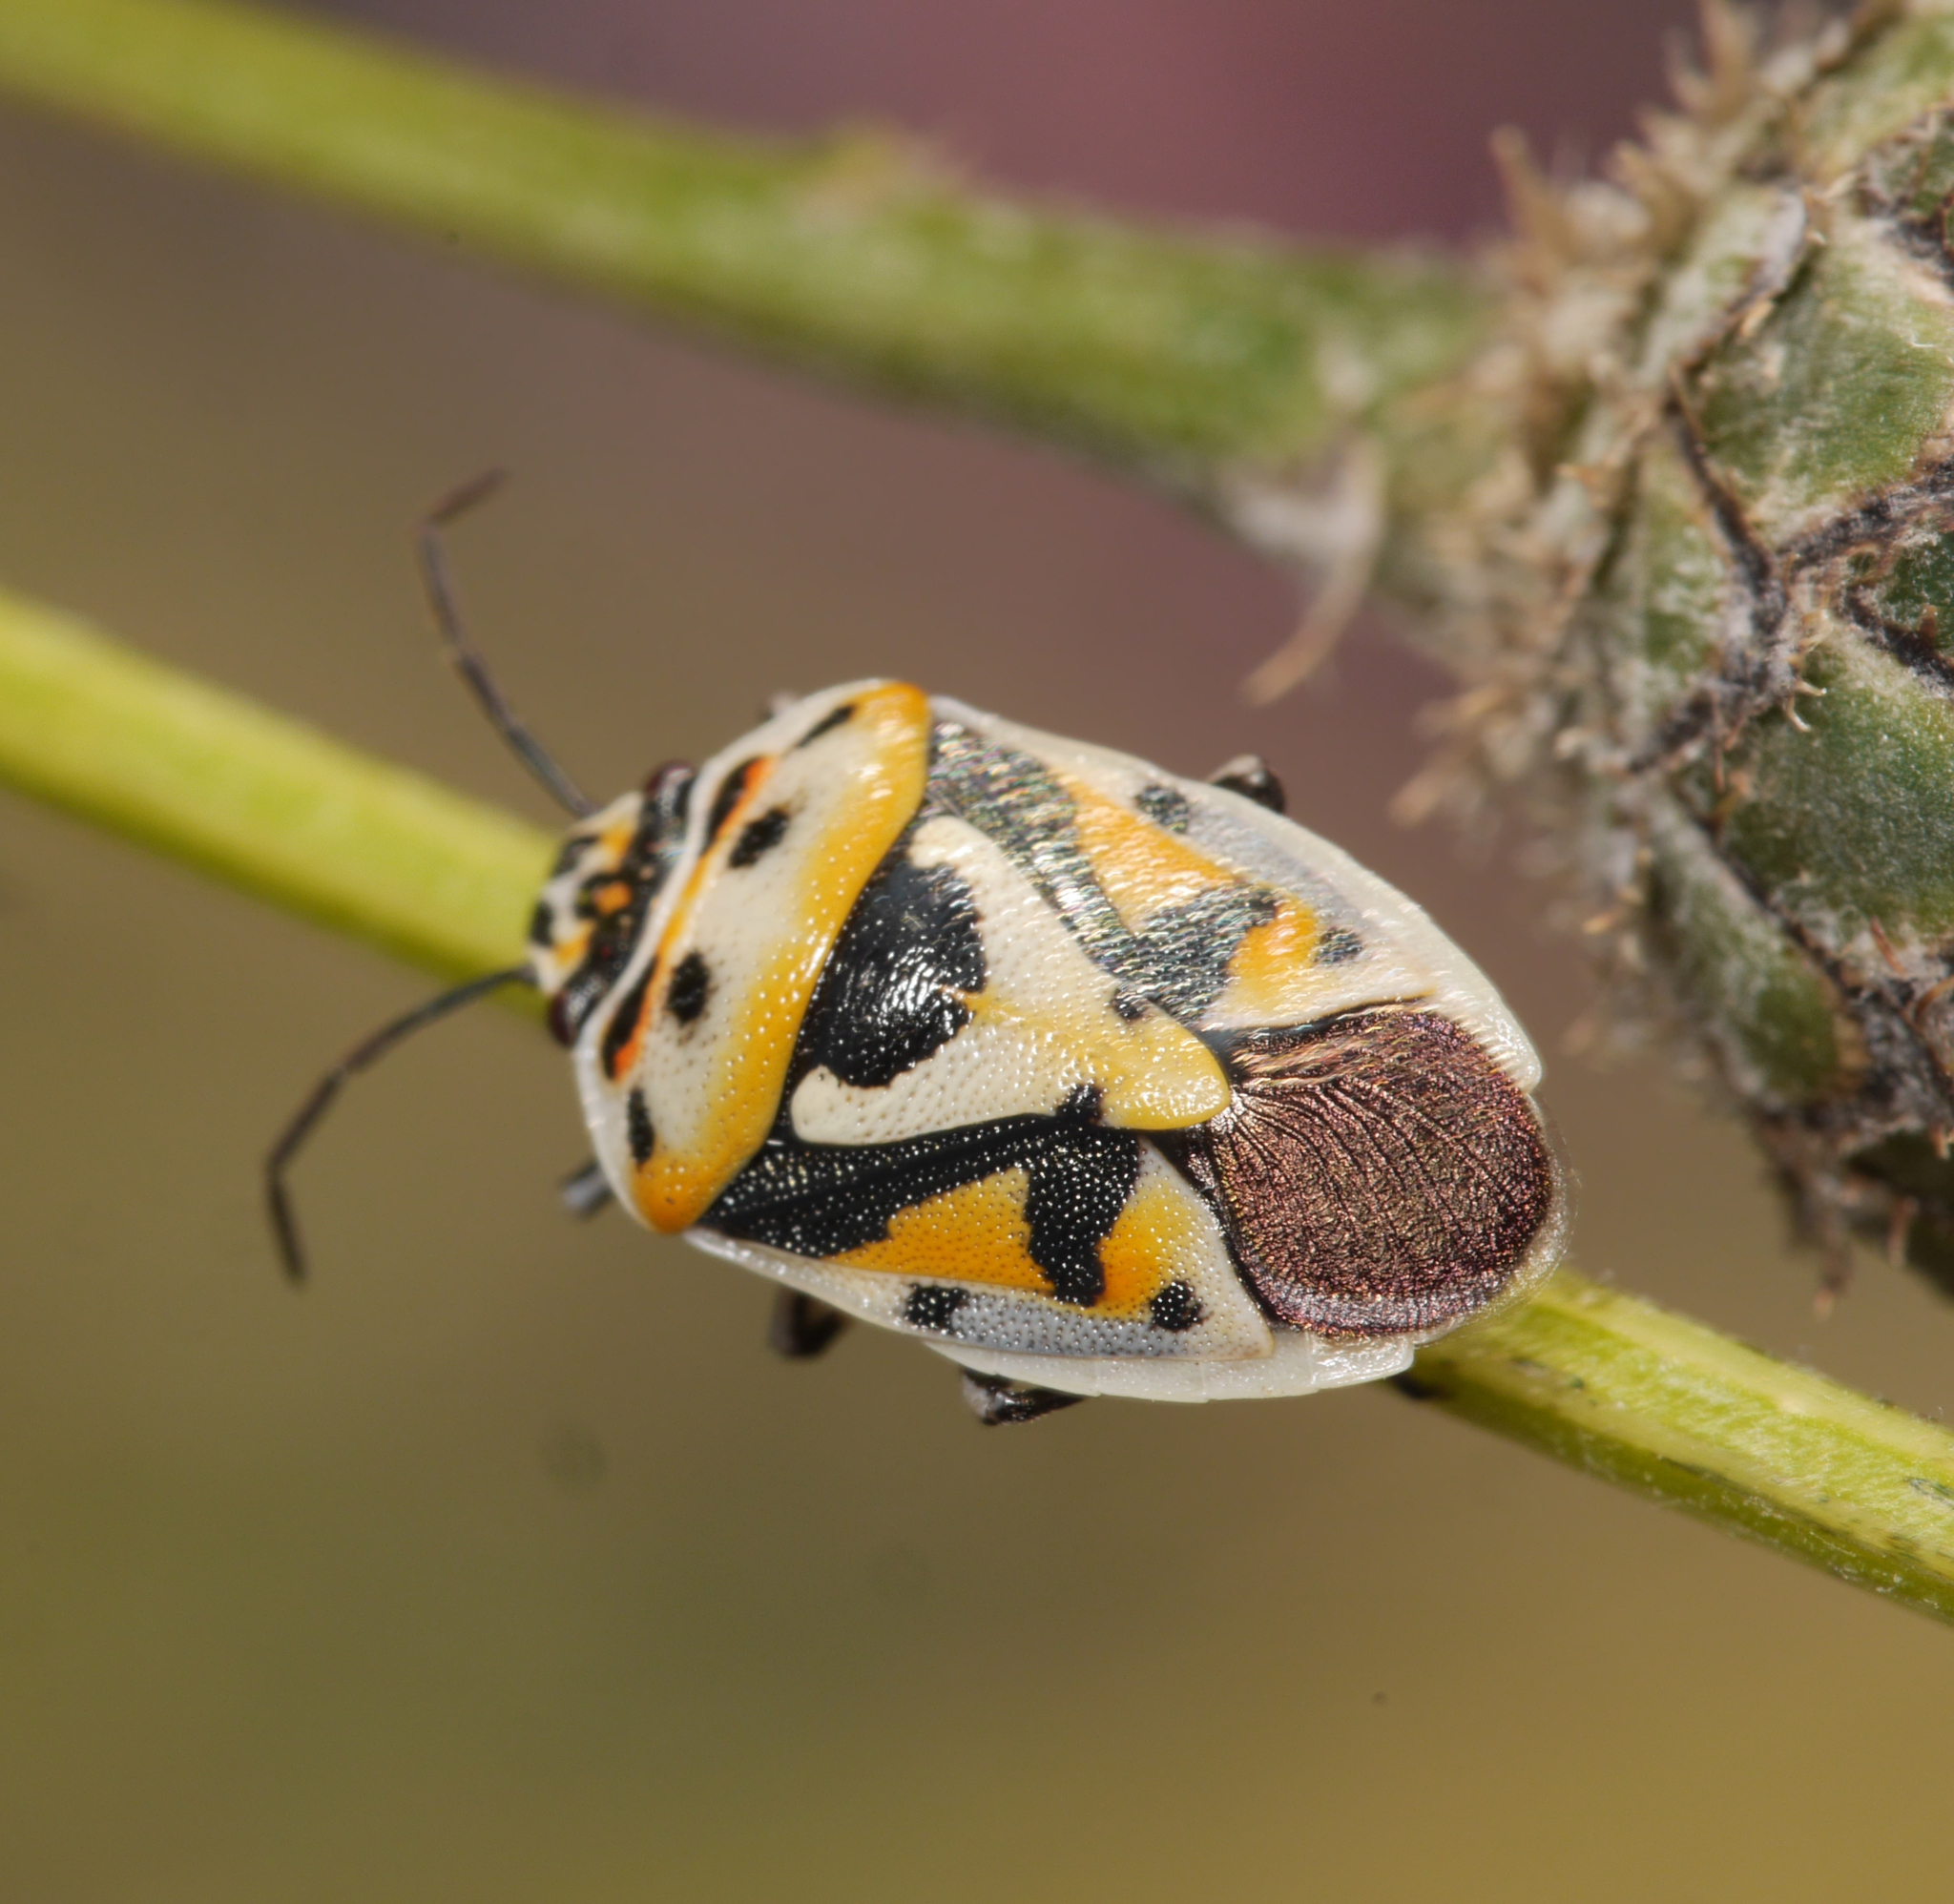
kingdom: Animalia
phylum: Arthropoda
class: Insecta
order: Hemiptera
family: Pentatomidae
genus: Eurydema
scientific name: Eurydema ornata
